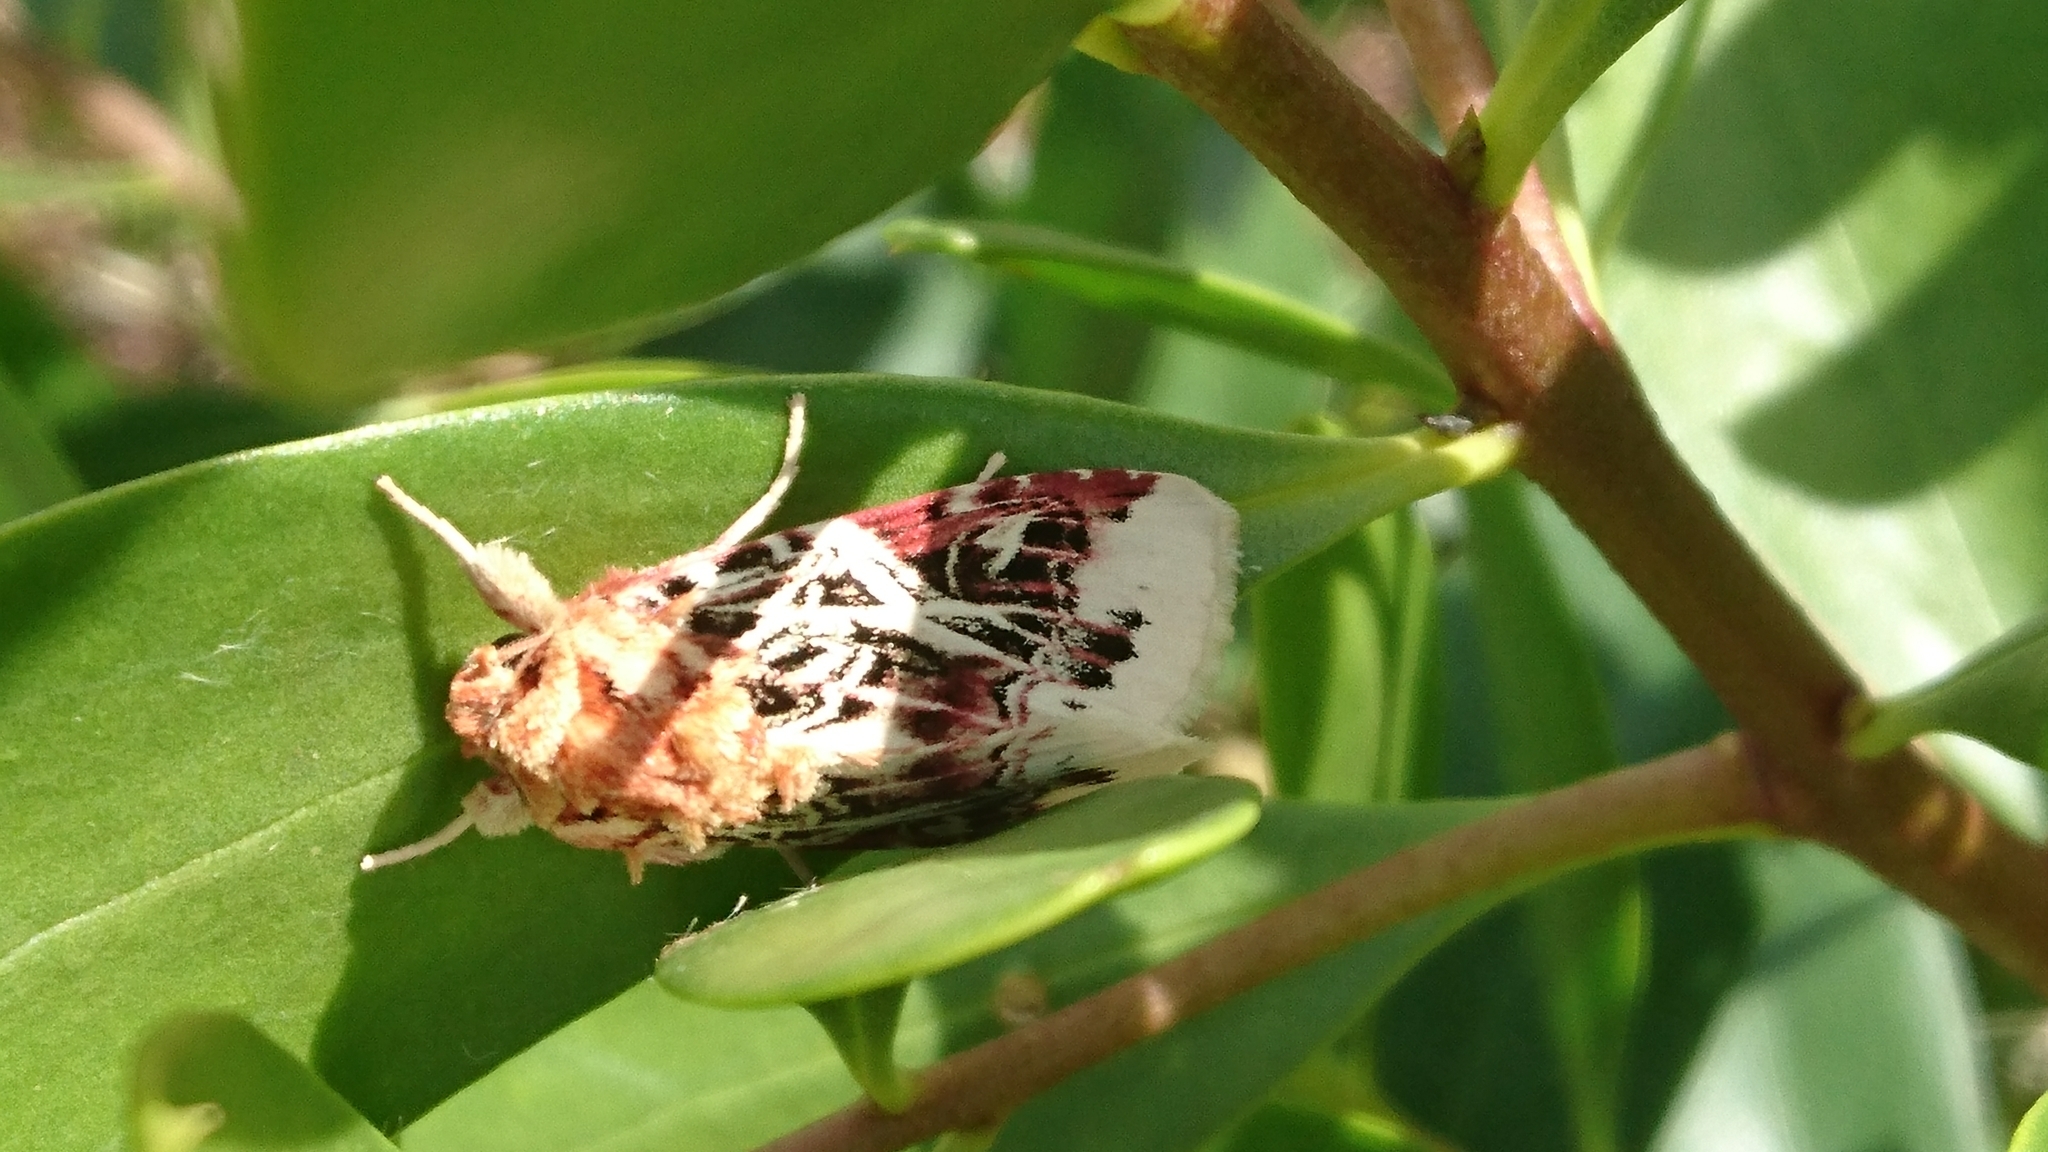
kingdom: Animalia
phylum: Arthropoda
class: Insecta
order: Lepidoptera
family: Noctuidae
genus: Spodoptera
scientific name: Spodoptera picta
